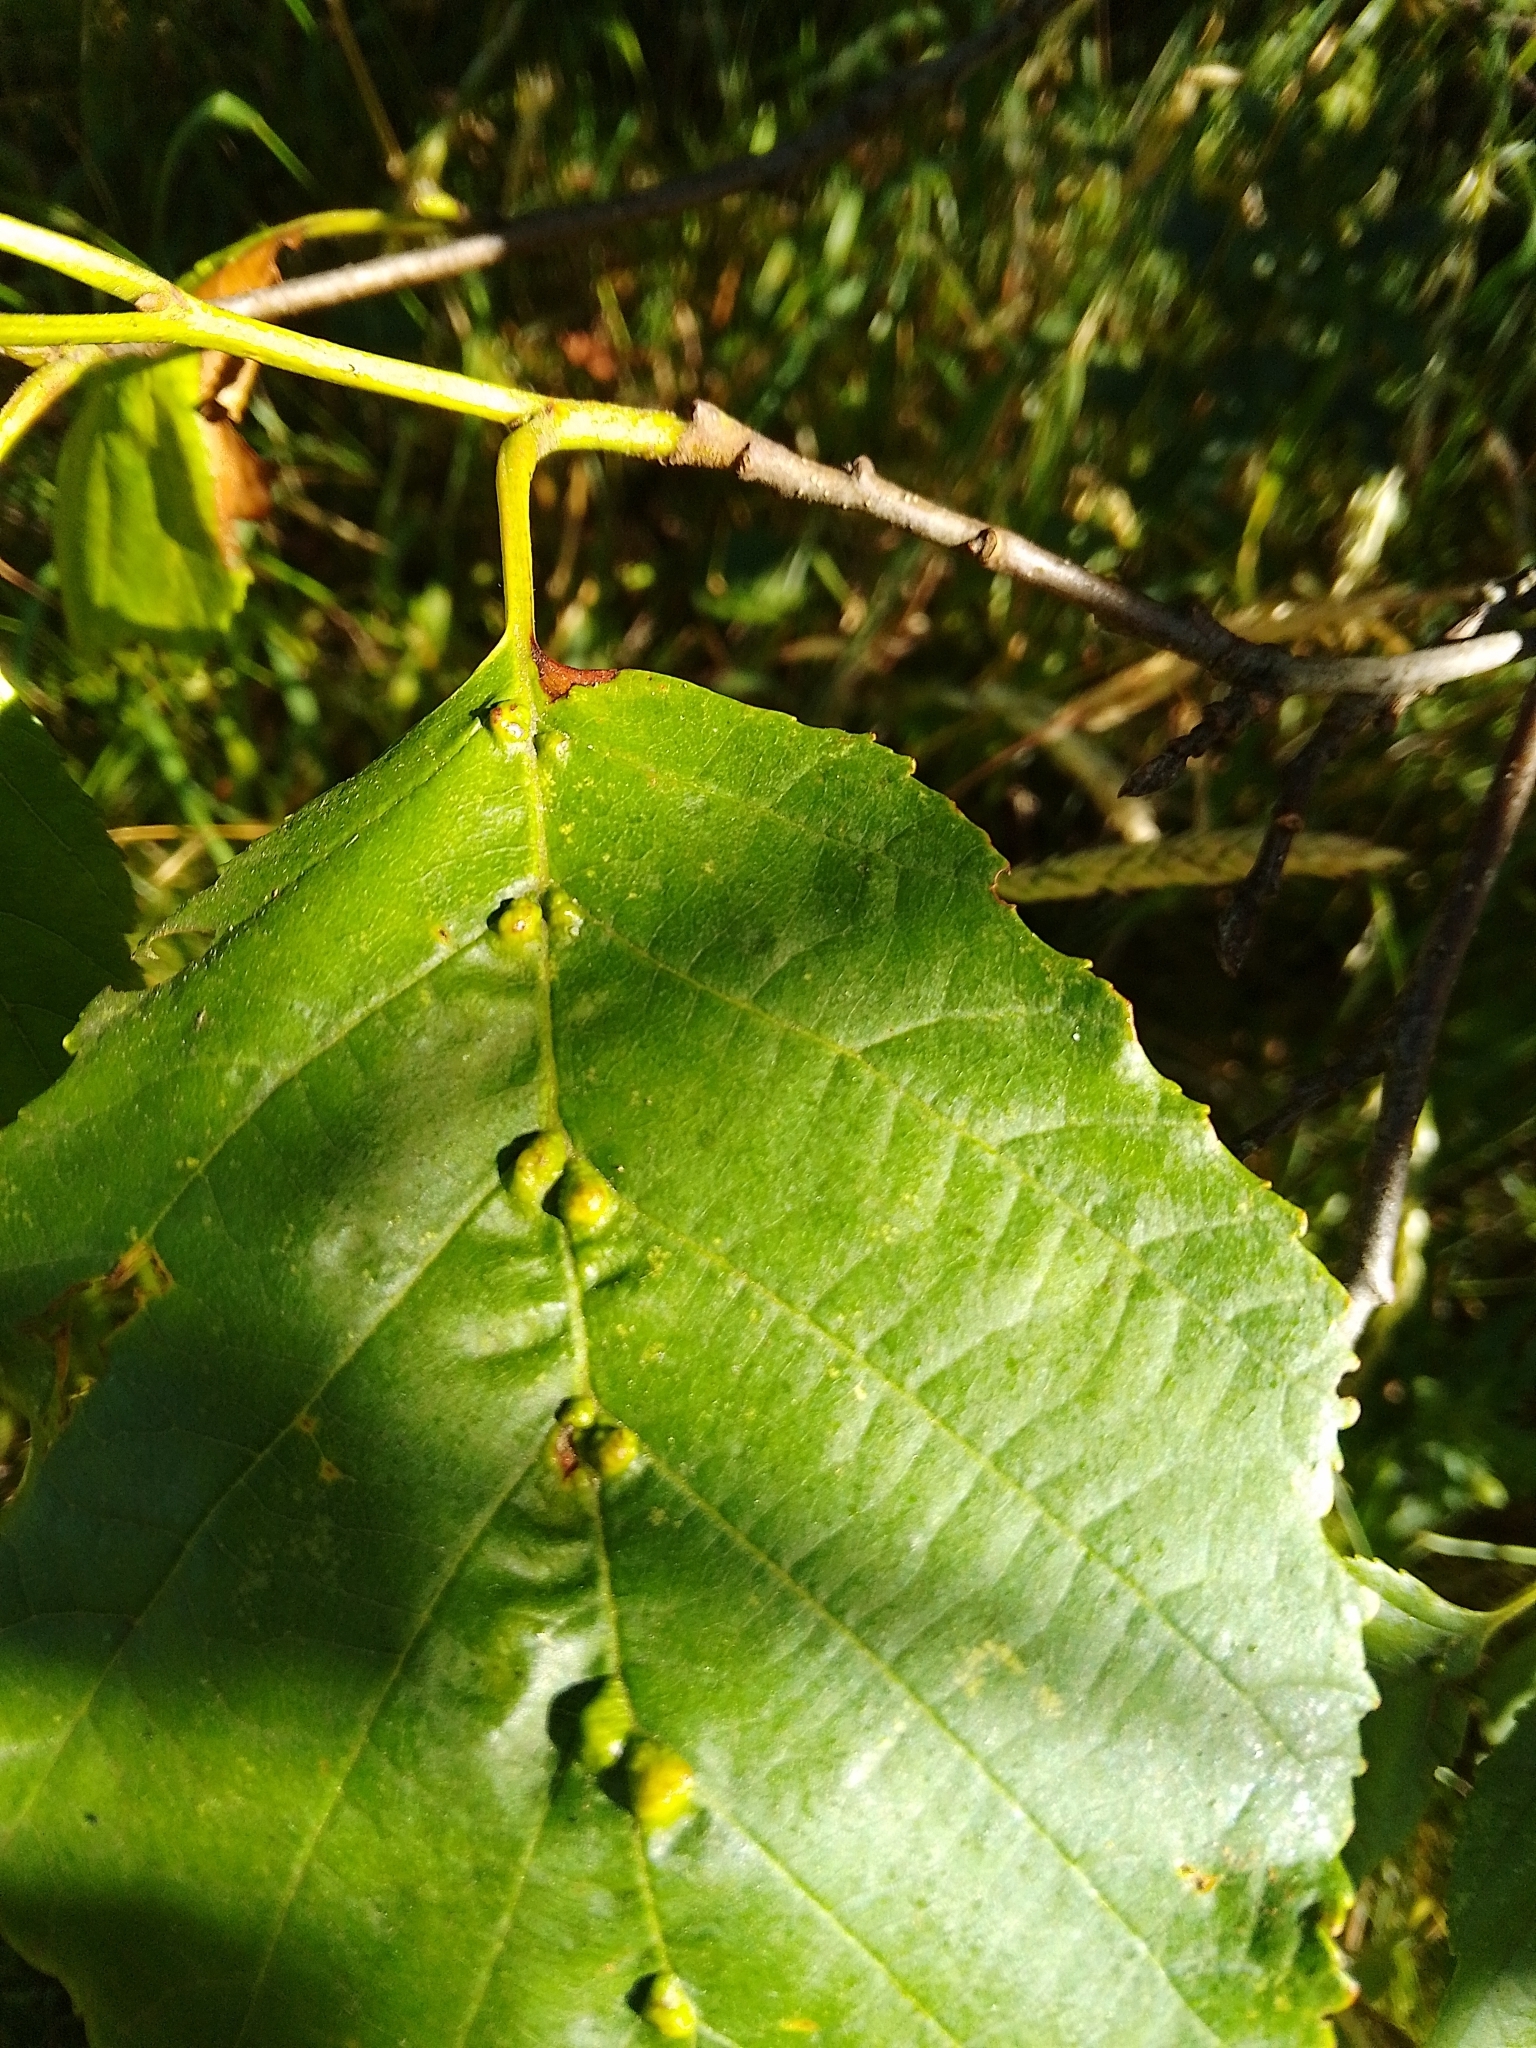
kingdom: Animalia
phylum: Arthropoda
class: Arachnida
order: Trombidiformes
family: Eriophyidae
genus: Aceria
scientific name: Aceria nalepai
